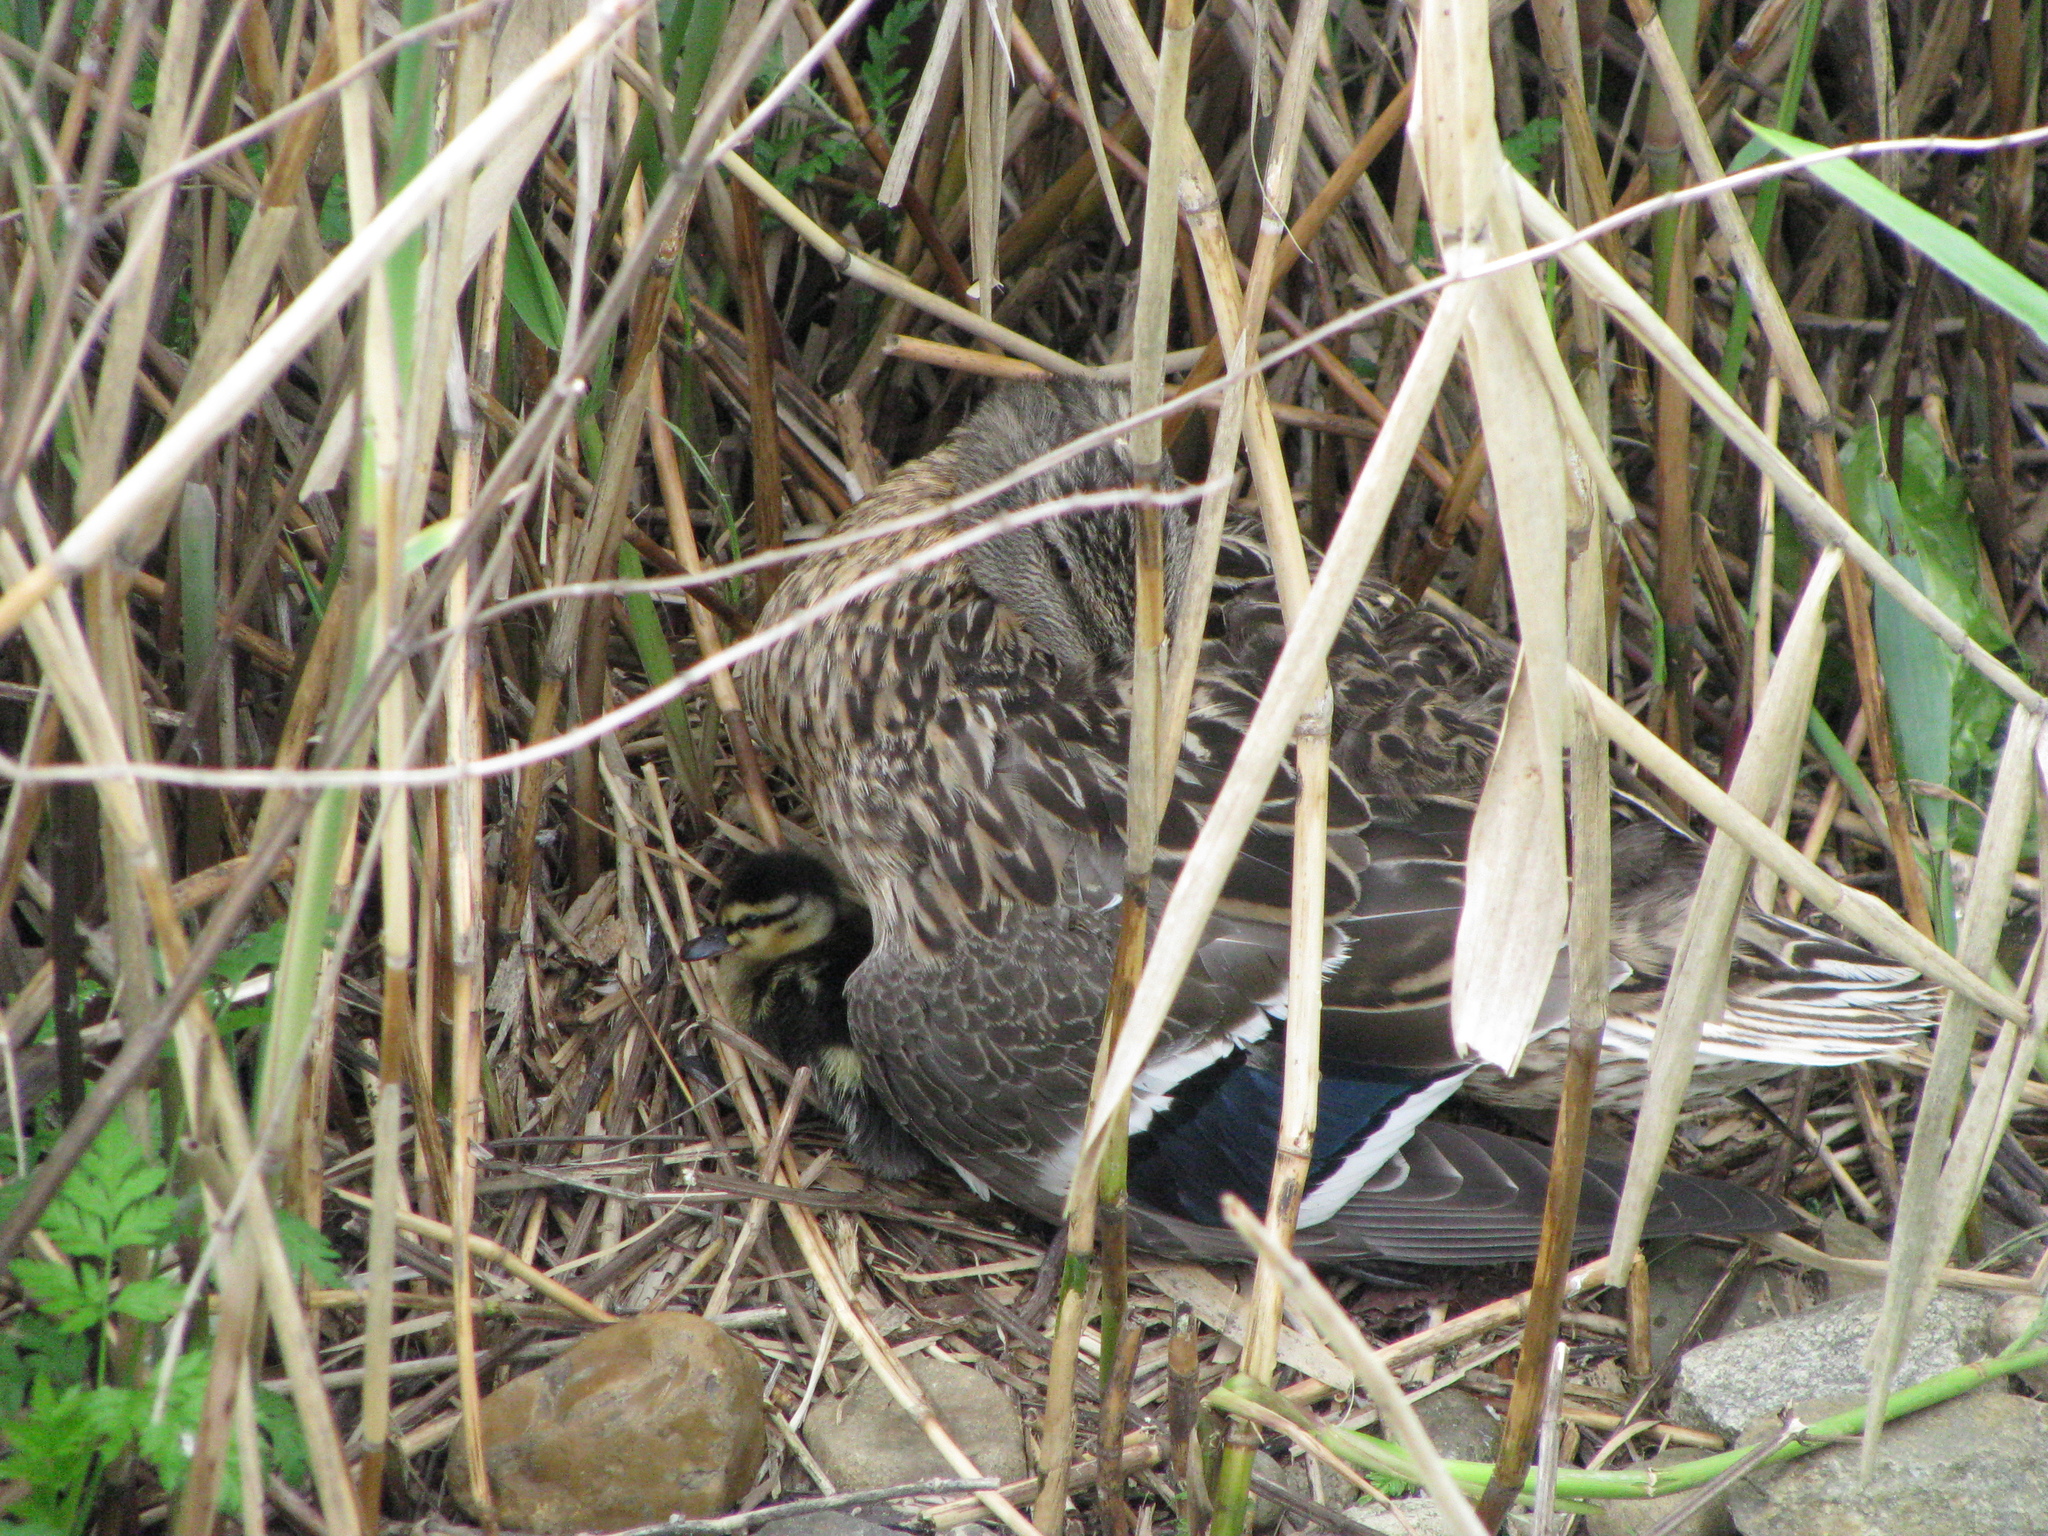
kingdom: Animalia
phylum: Chordata
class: Aves
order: Anseriformes
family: Anatidae
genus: Anas
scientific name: Anas platyrhynchos
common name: Mallard
